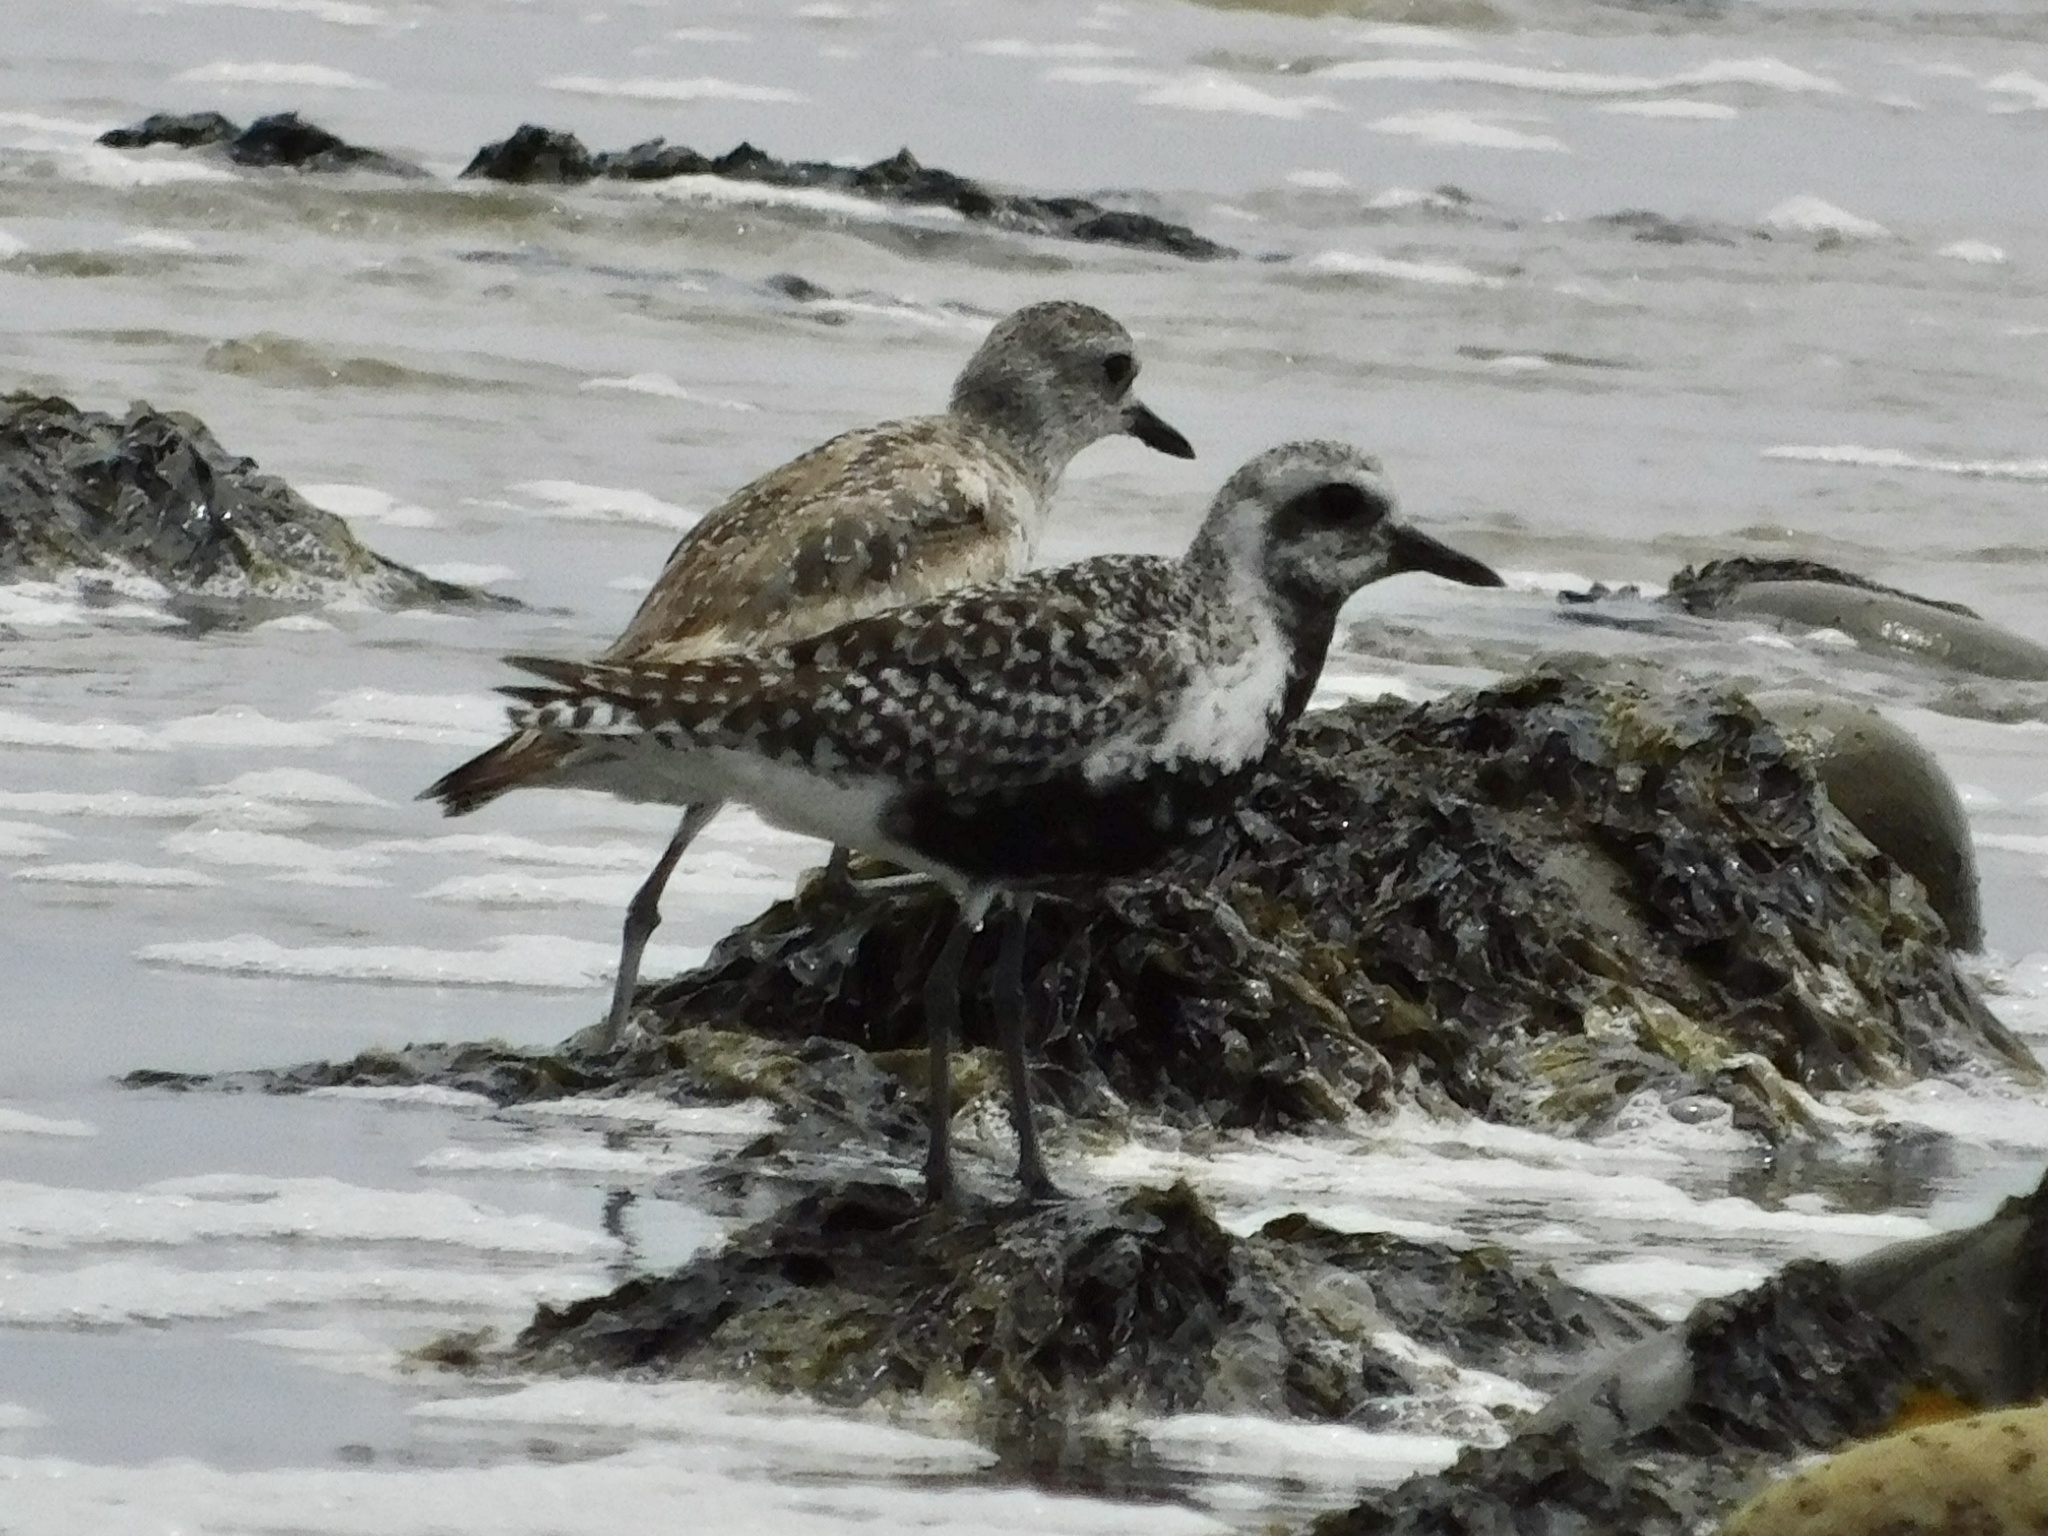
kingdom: Animalia
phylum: Chordata
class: Aves
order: Charadriiformes
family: Charadriidae
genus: Pluvialis
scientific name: Pluvialis squatarola
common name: Grey plover
